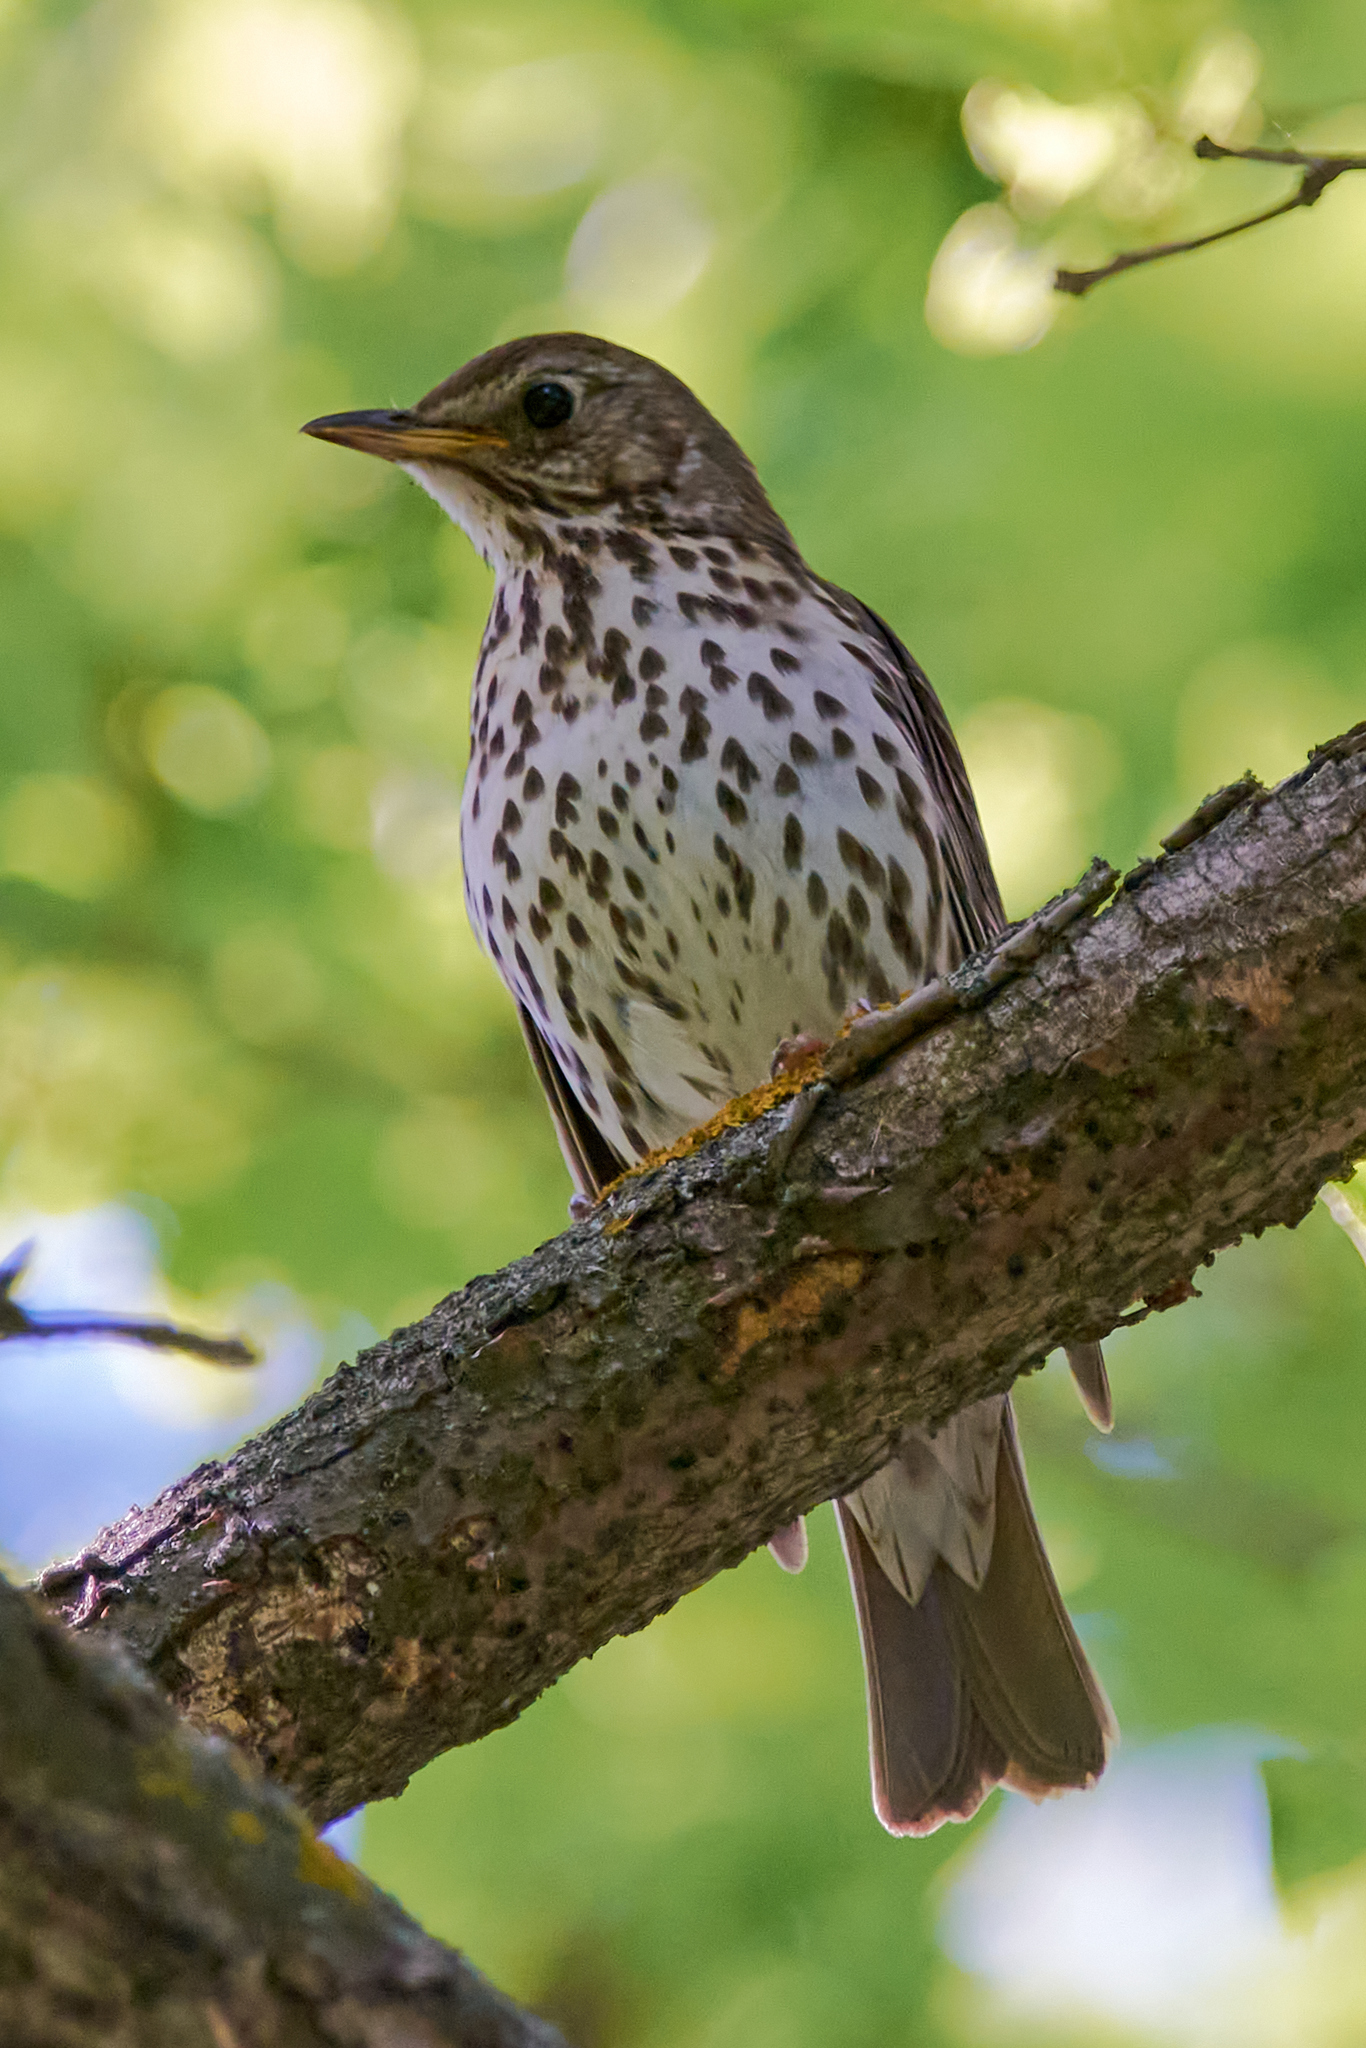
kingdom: Animalia
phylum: Chordata
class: Aves
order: Passeriformes
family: Turdidae
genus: Turdus
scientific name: Turdus philomelos
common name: Song thrush
